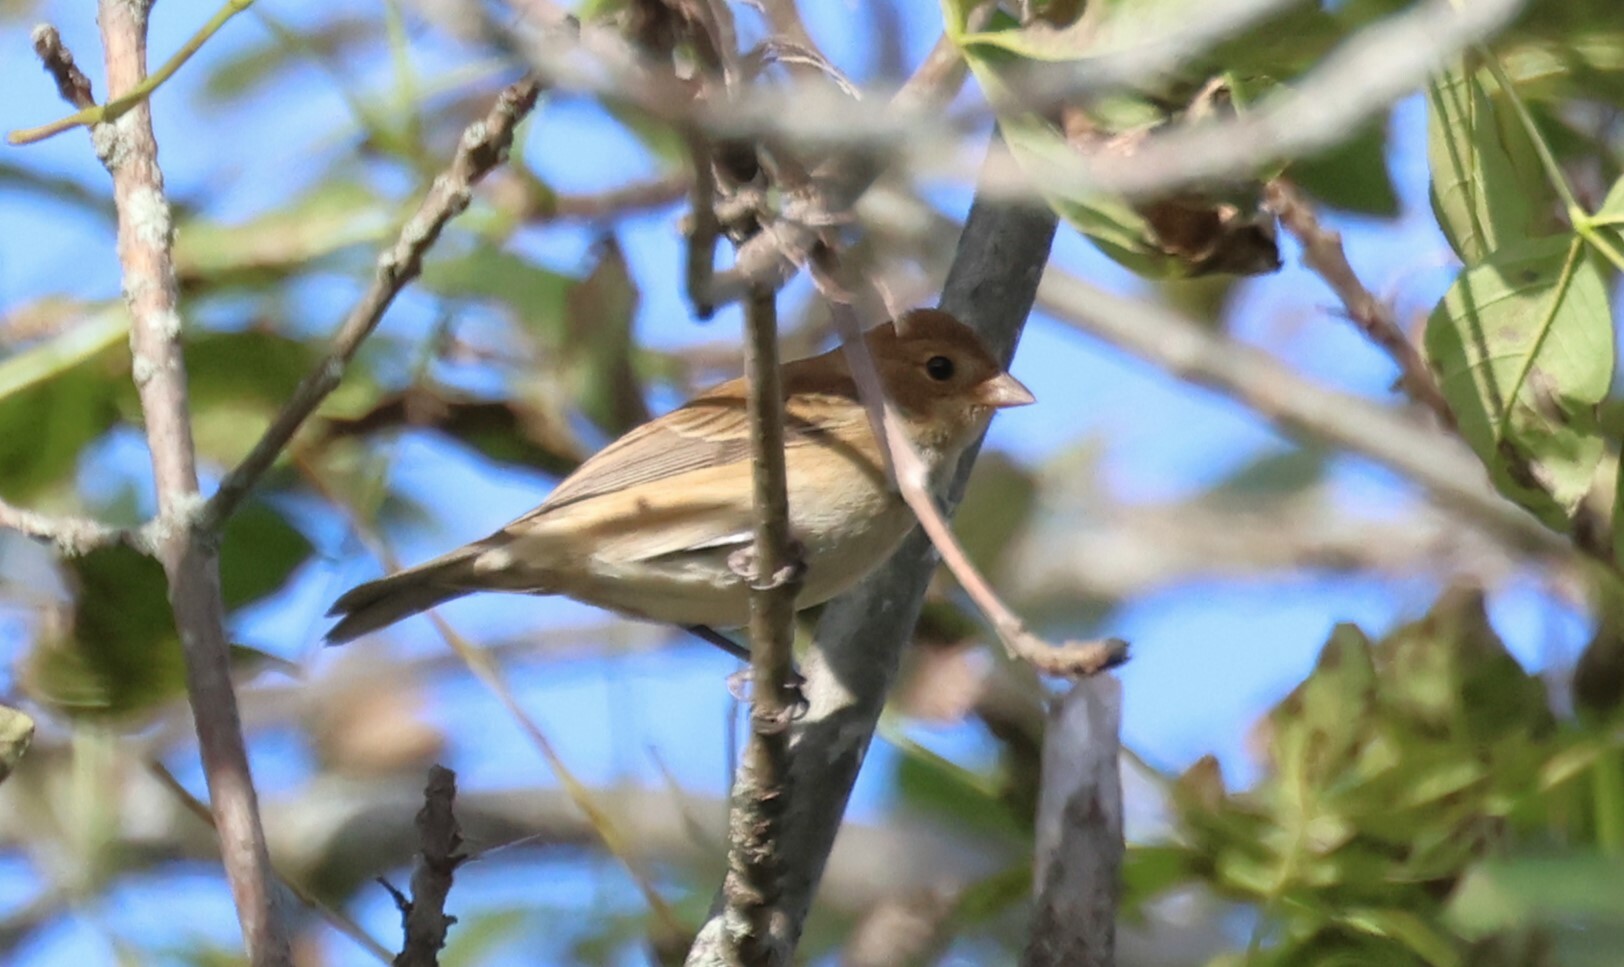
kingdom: Animalia
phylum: Chordata
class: Aves
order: Passeriformes
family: Cardinalidae
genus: Passerina
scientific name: Passerina cyanea
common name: Indigo bunting
